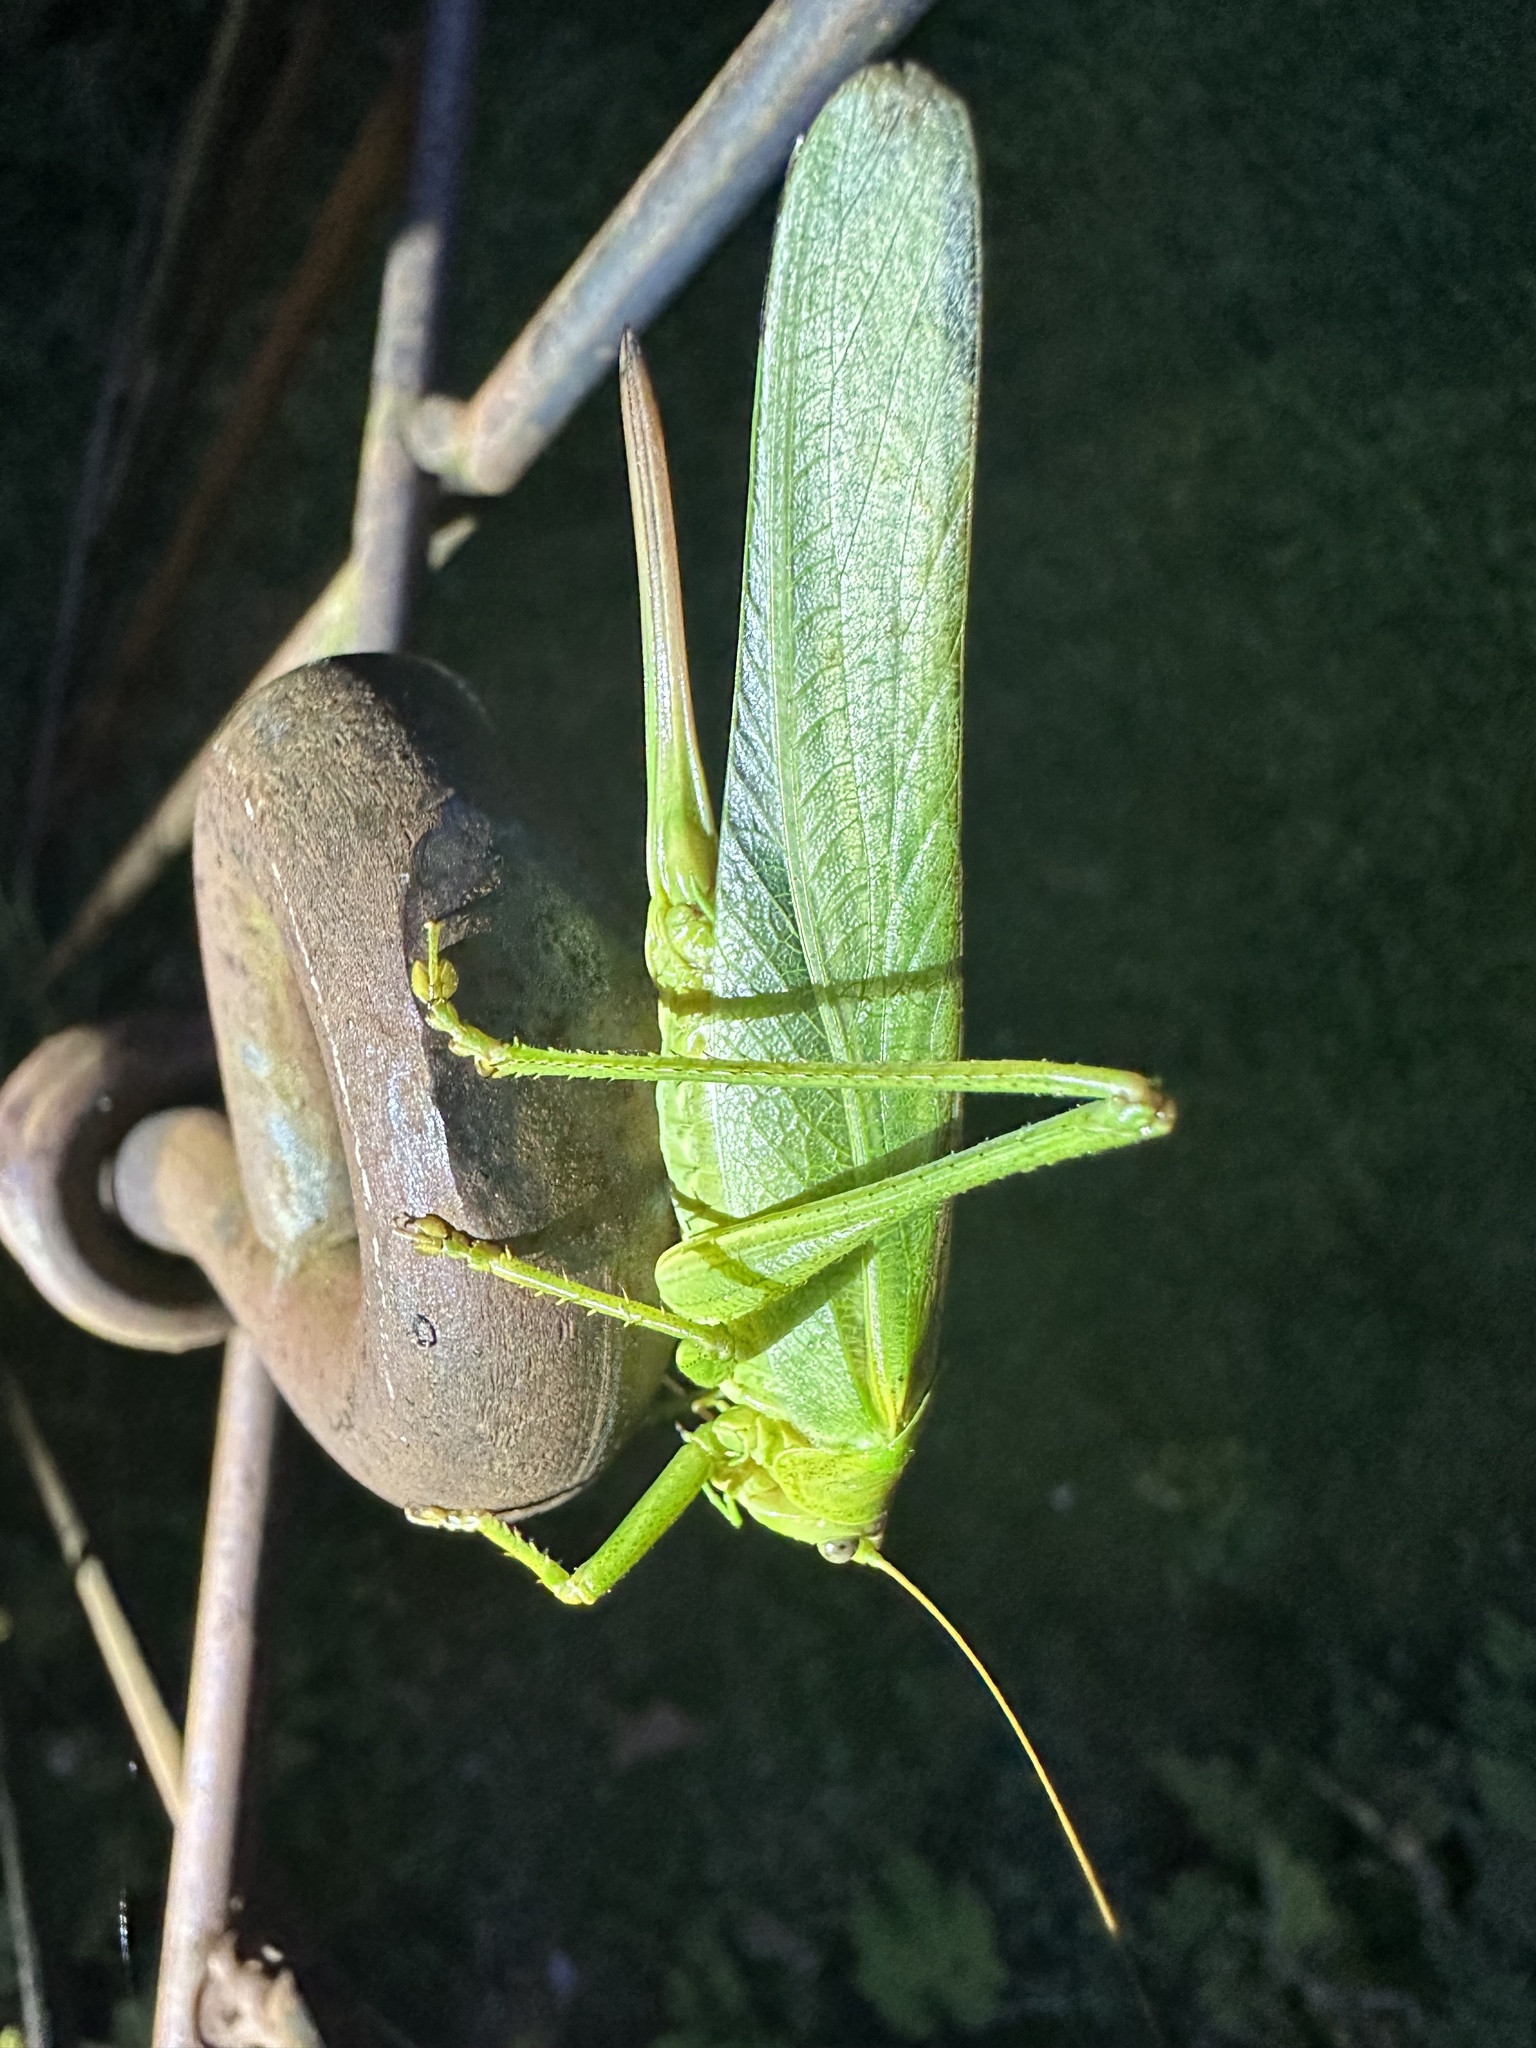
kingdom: Animalia
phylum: Arthropoda
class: Insecta
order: Orthoptera
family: Tettigoniidae
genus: Tettigonia
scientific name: Tettigonia viridissima
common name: Great green bush-cricket
